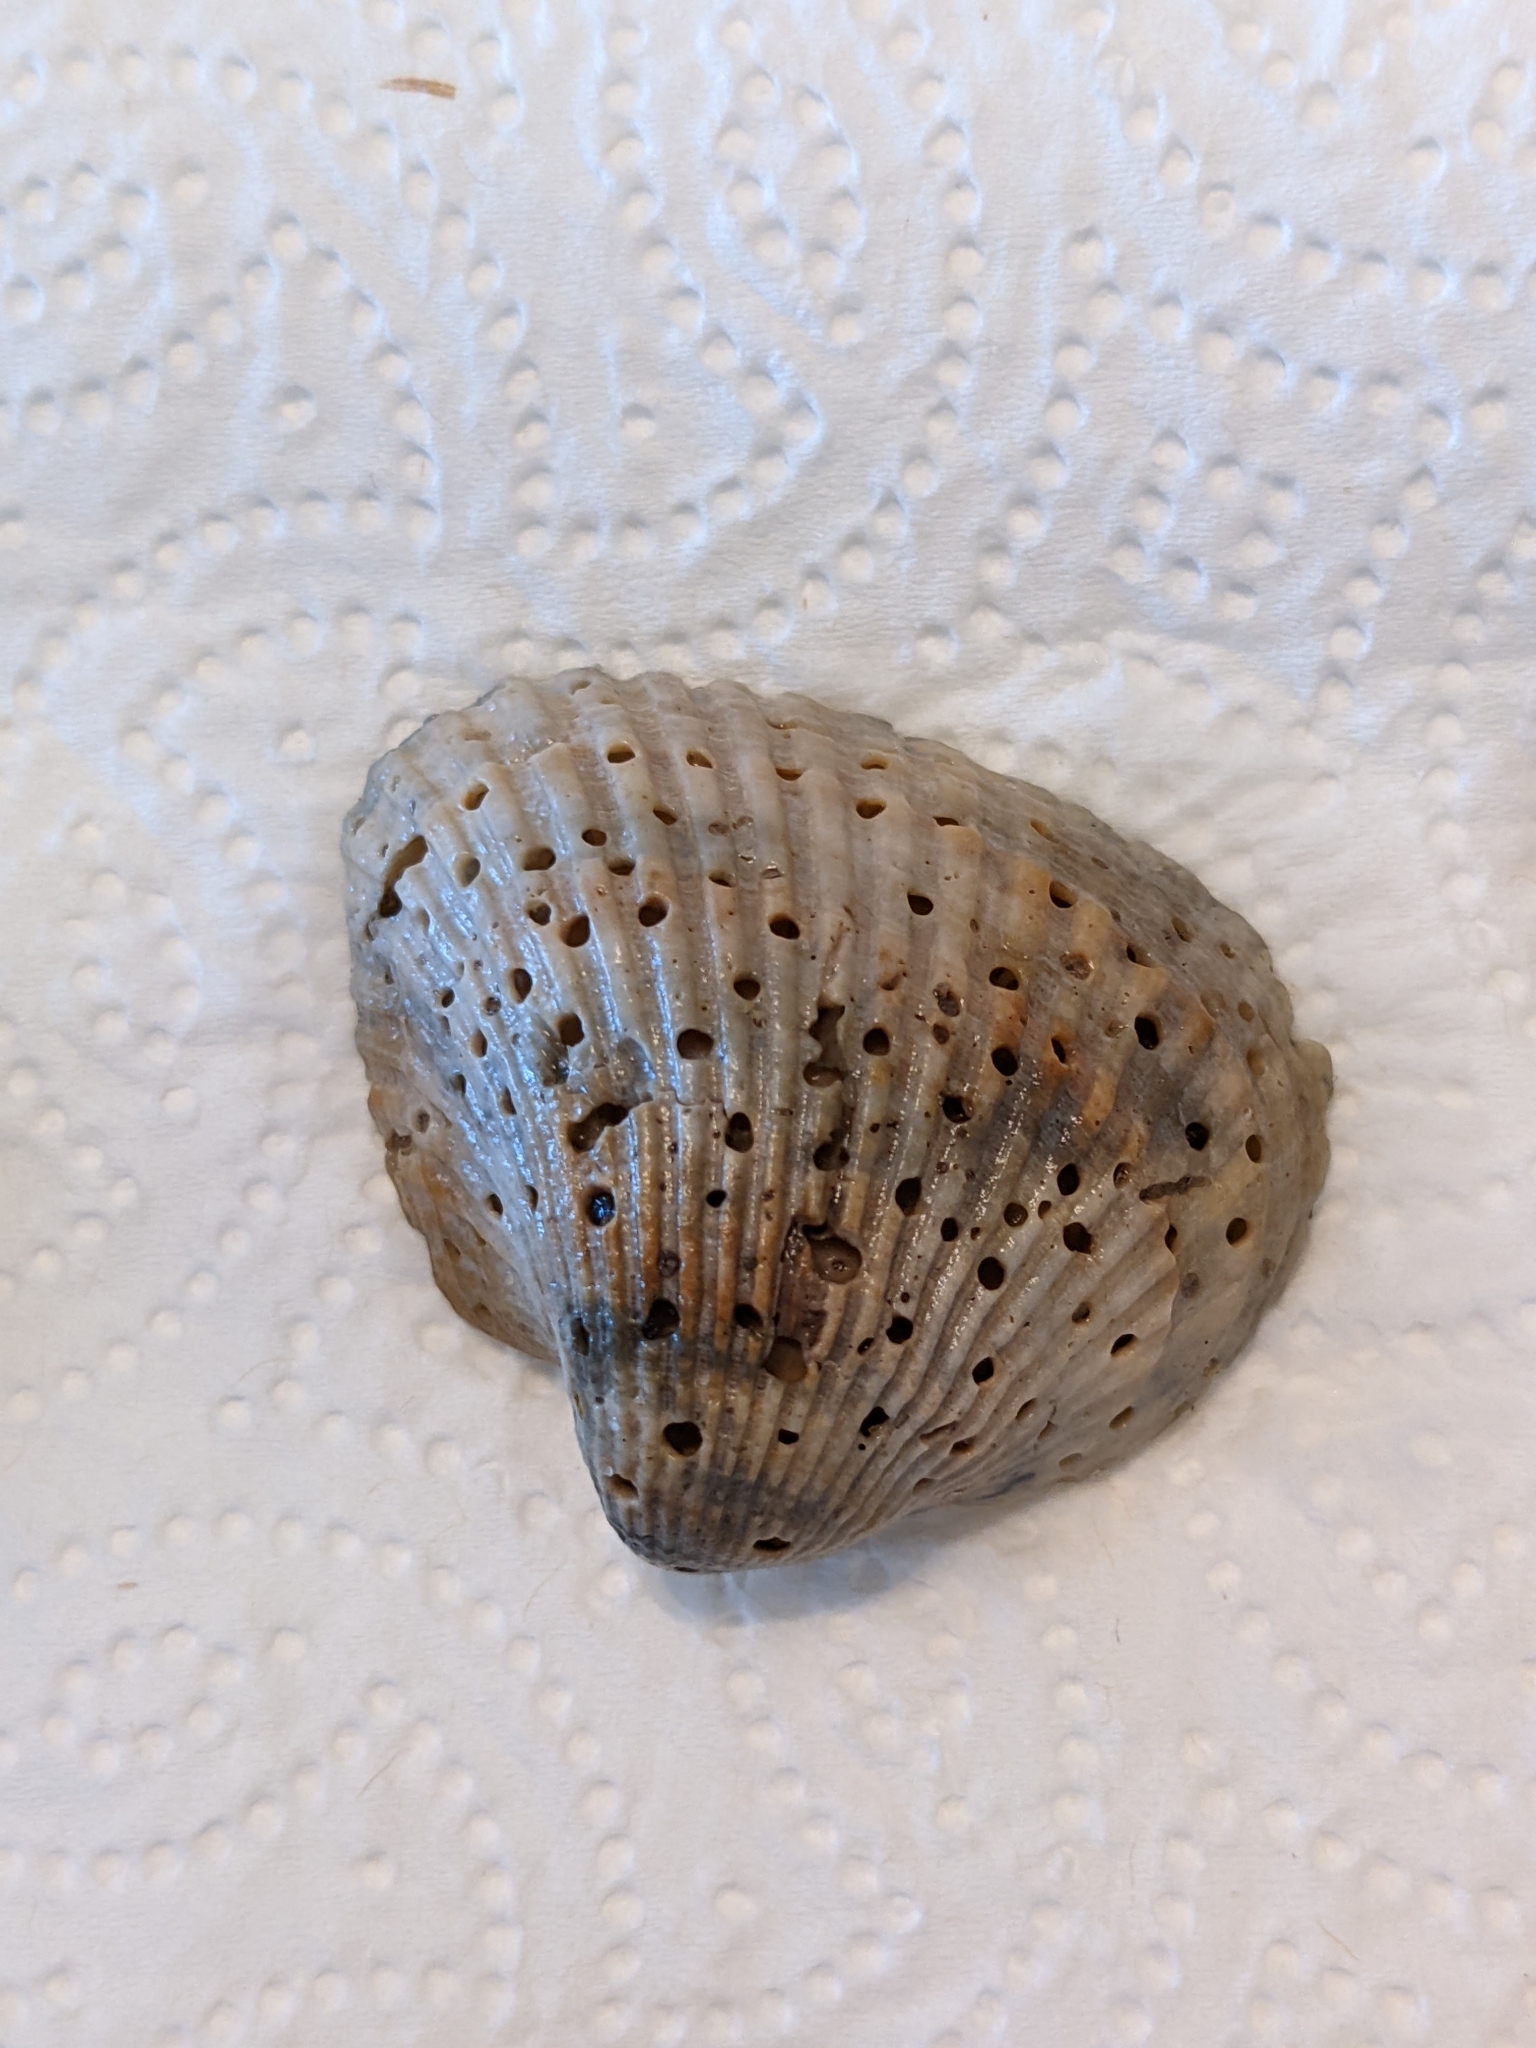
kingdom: Animalia
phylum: Mollusca
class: Bivalvia
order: Arcida
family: Noetiidae
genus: Noetia
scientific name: Noetia ponderosa
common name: Ponderous ark
